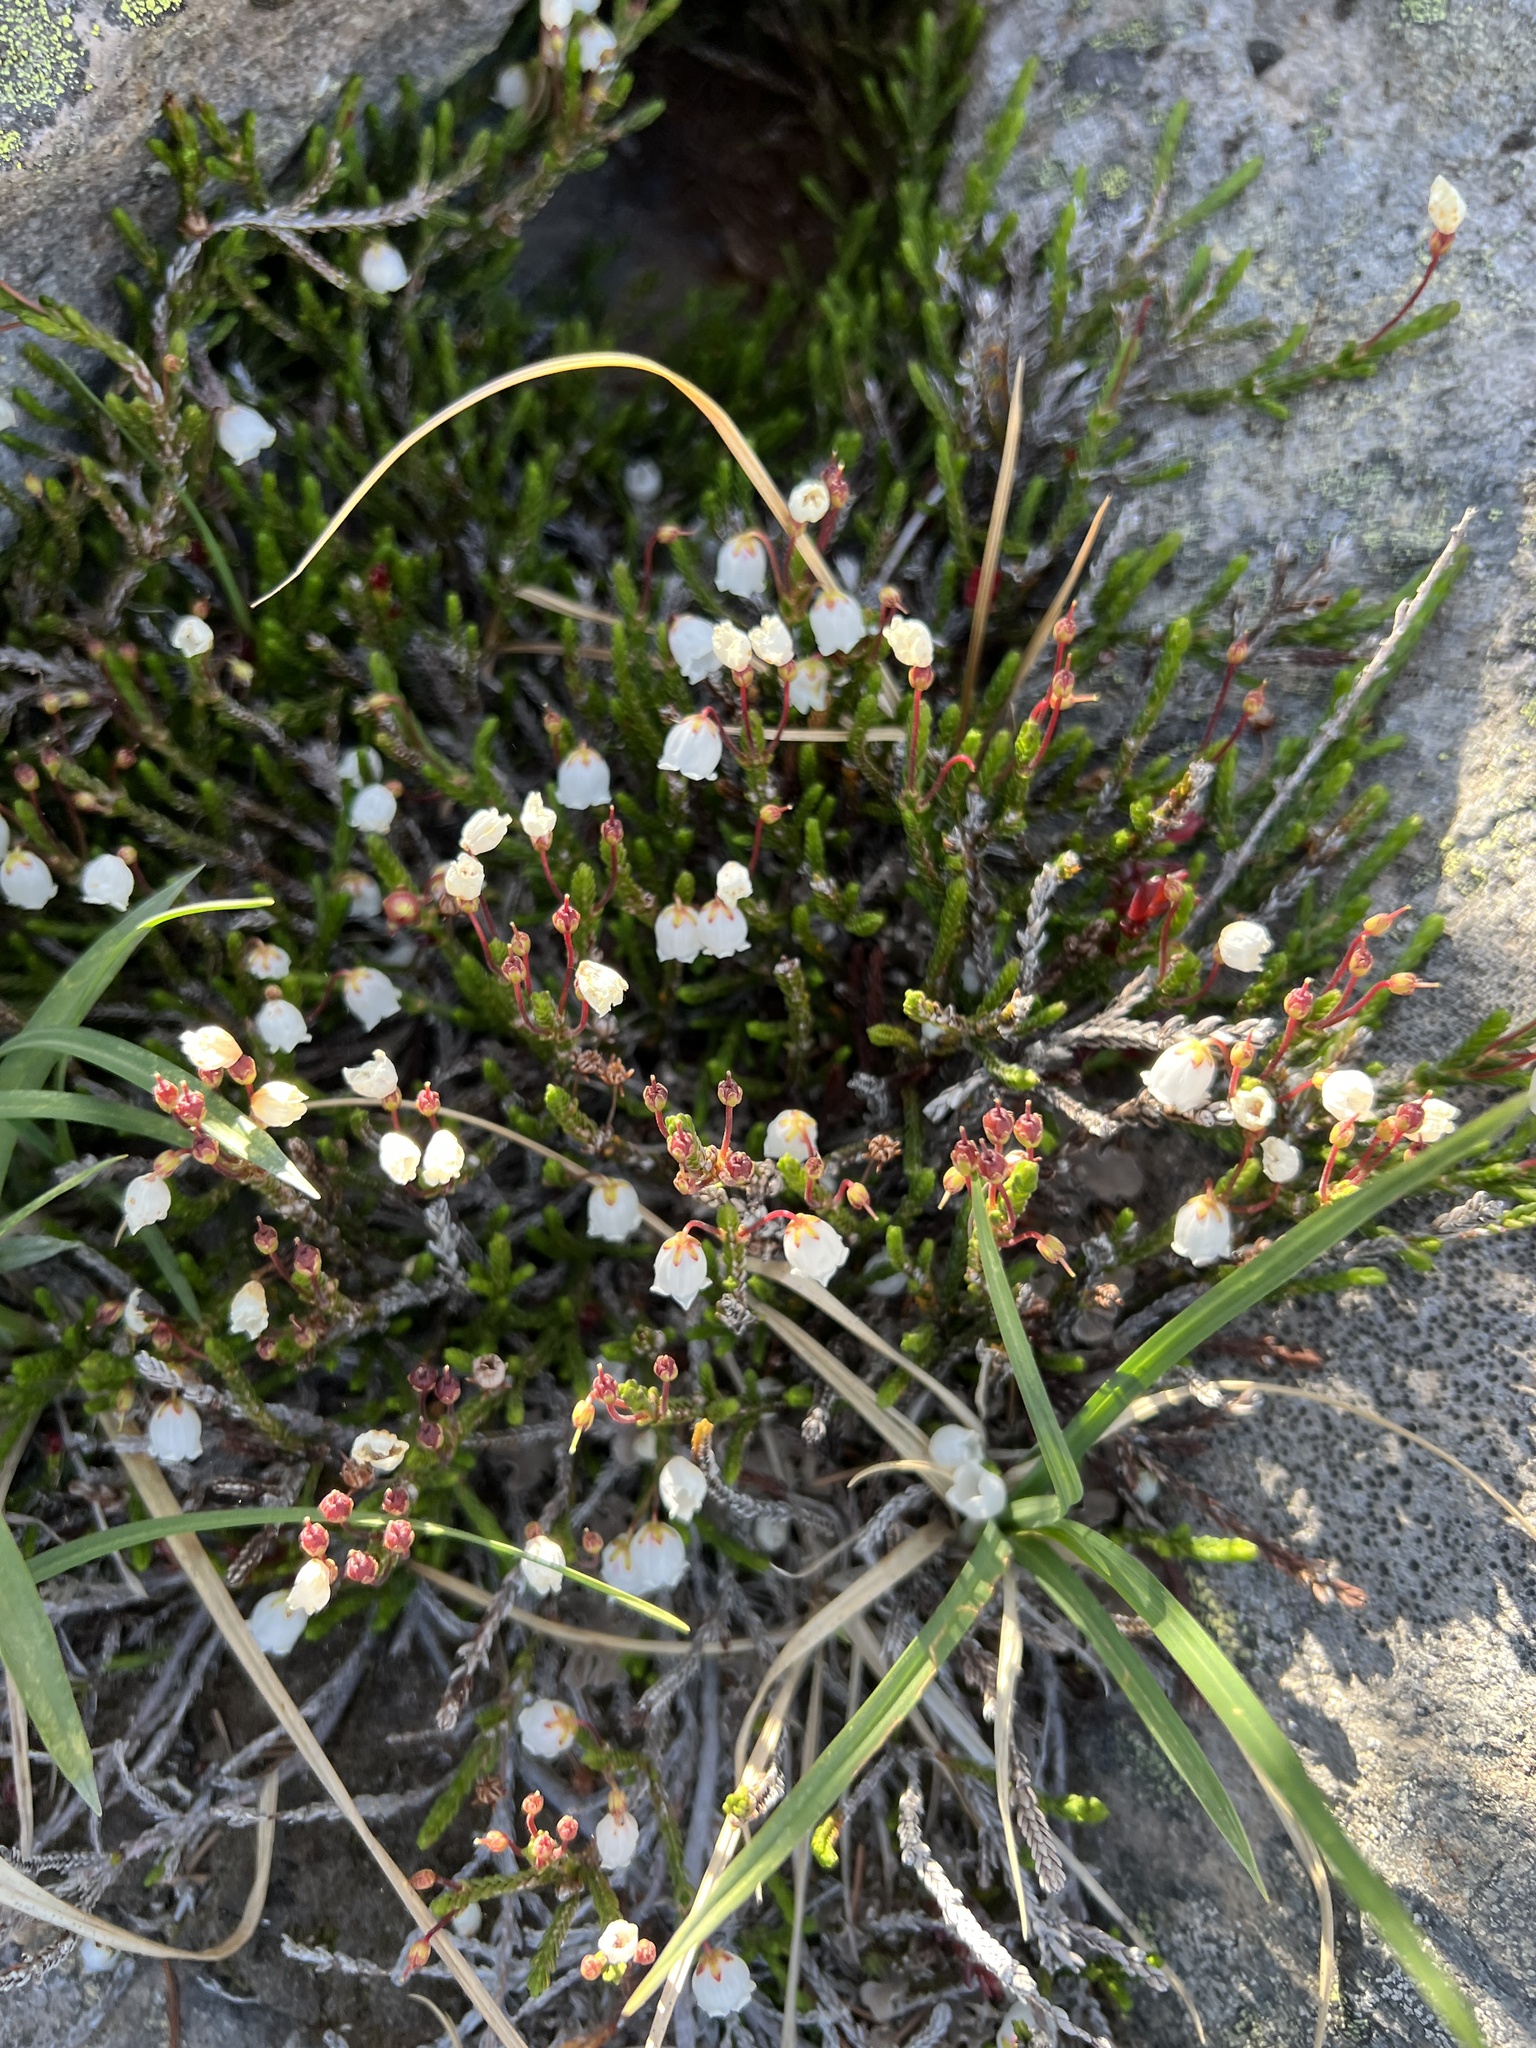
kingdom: Plantae
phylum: Tracheophyta
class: Magnoliopsida
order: Ericales
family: Ericaceae
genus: Cassiope
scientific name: Cassiope mertensiana
